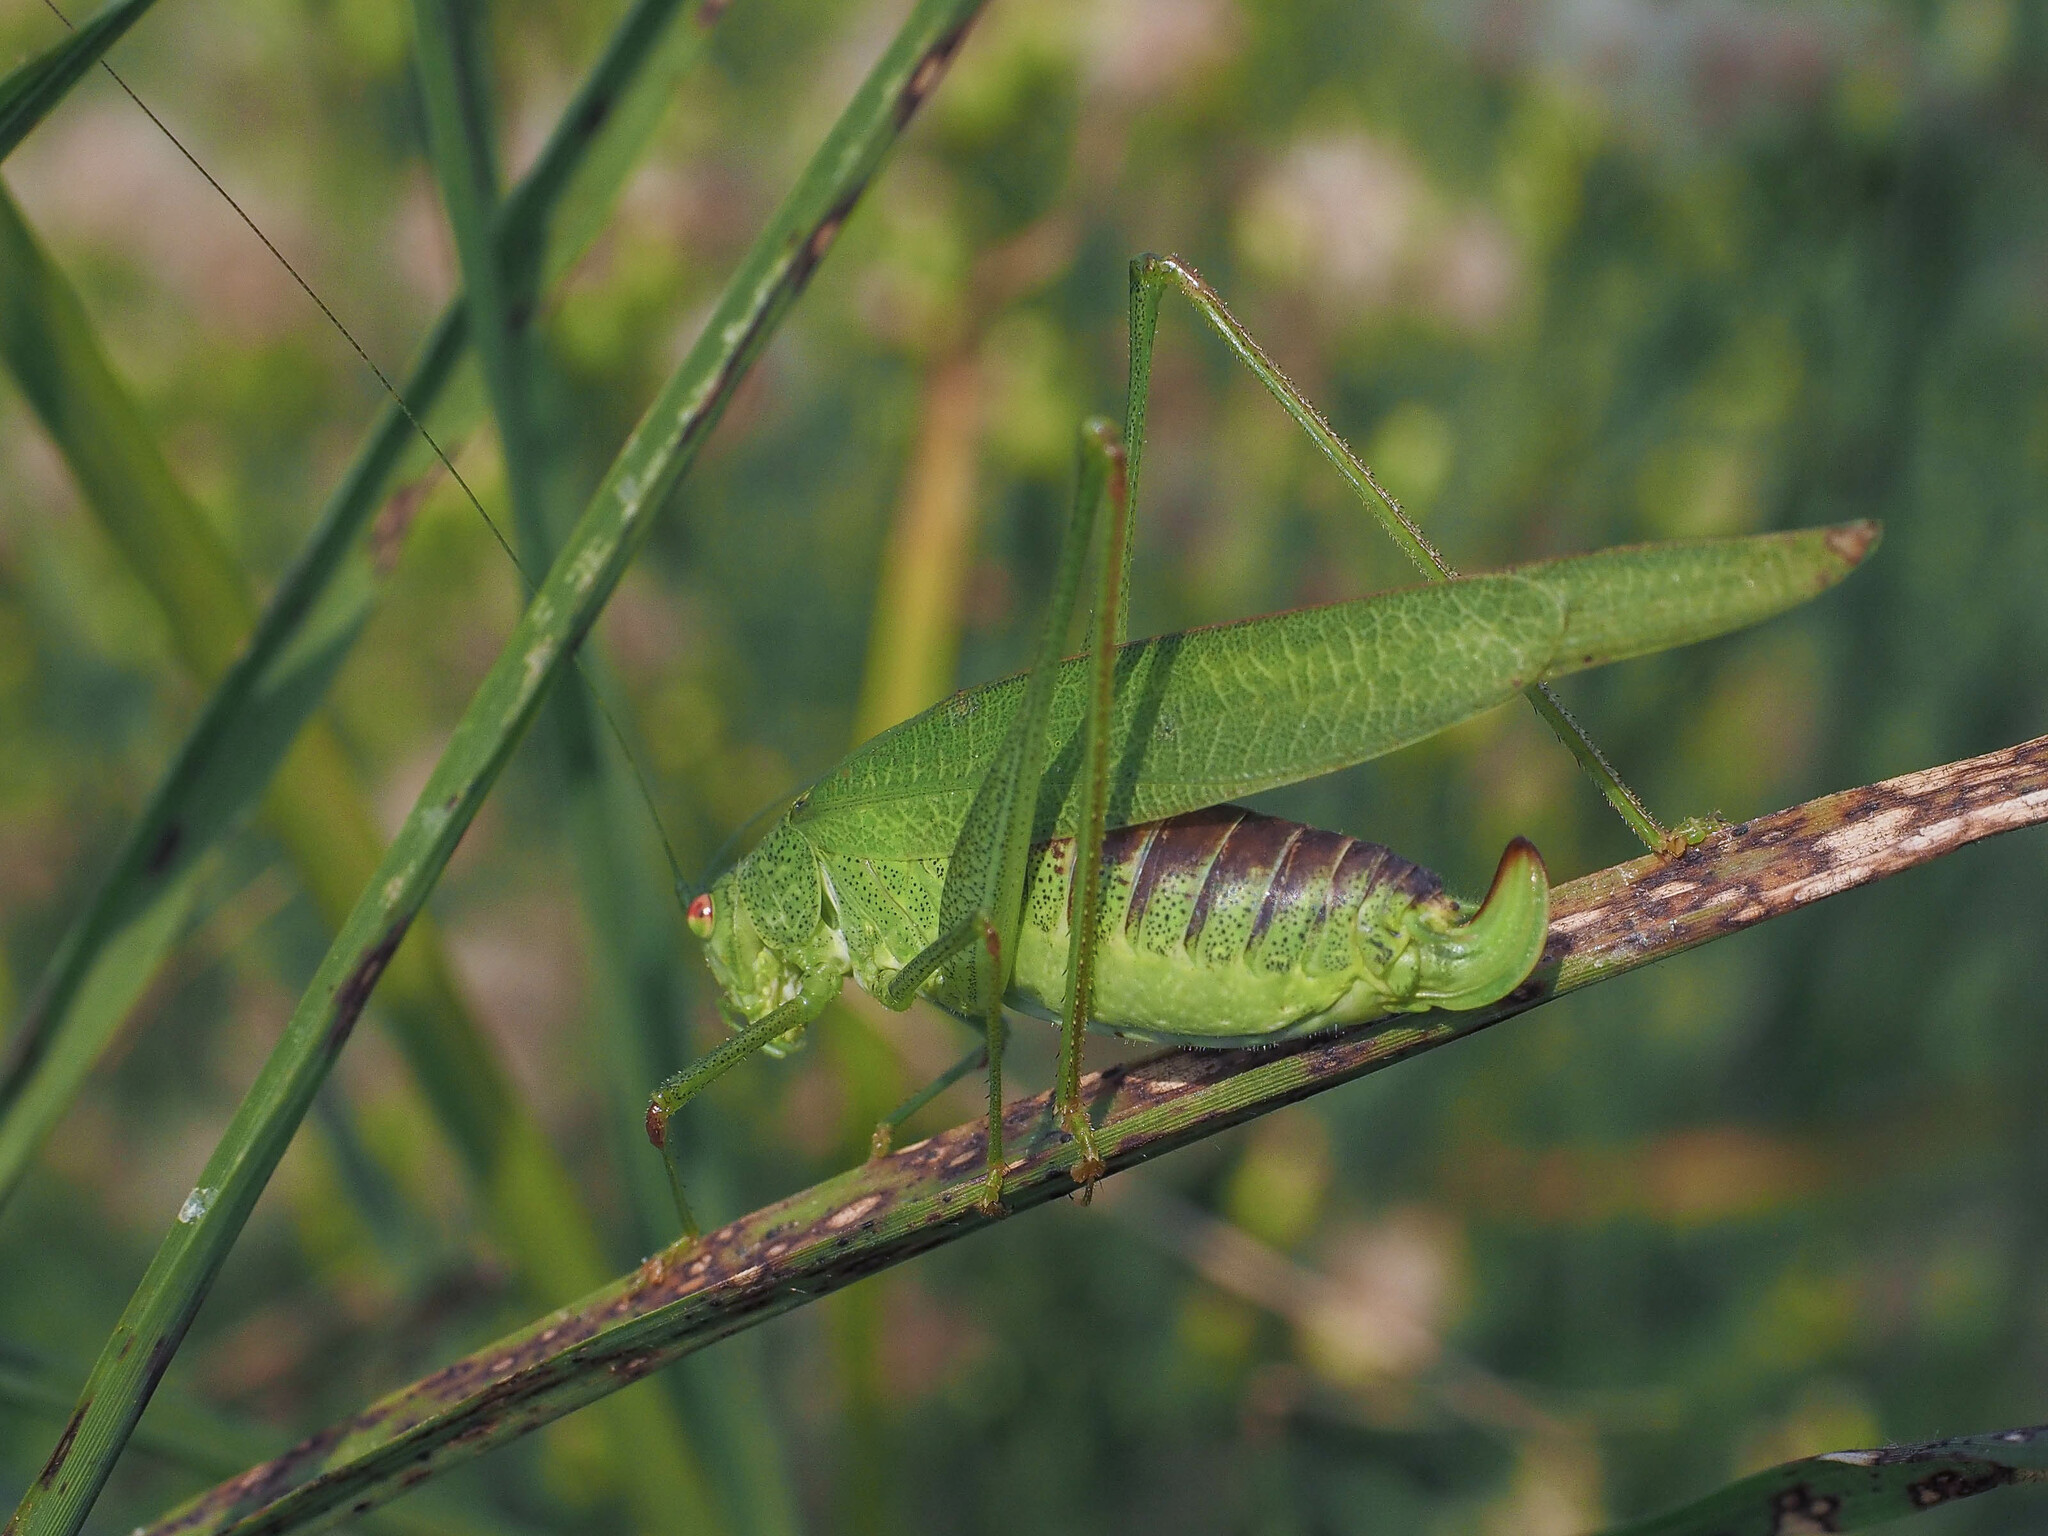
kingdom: Animalia
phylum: Arthropoda
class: Insecta
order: Orthoptera
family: Tettigoniidae
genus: Phaneroptera
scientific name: Phaneroptera nana
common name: Southern sickle bush-cricket
